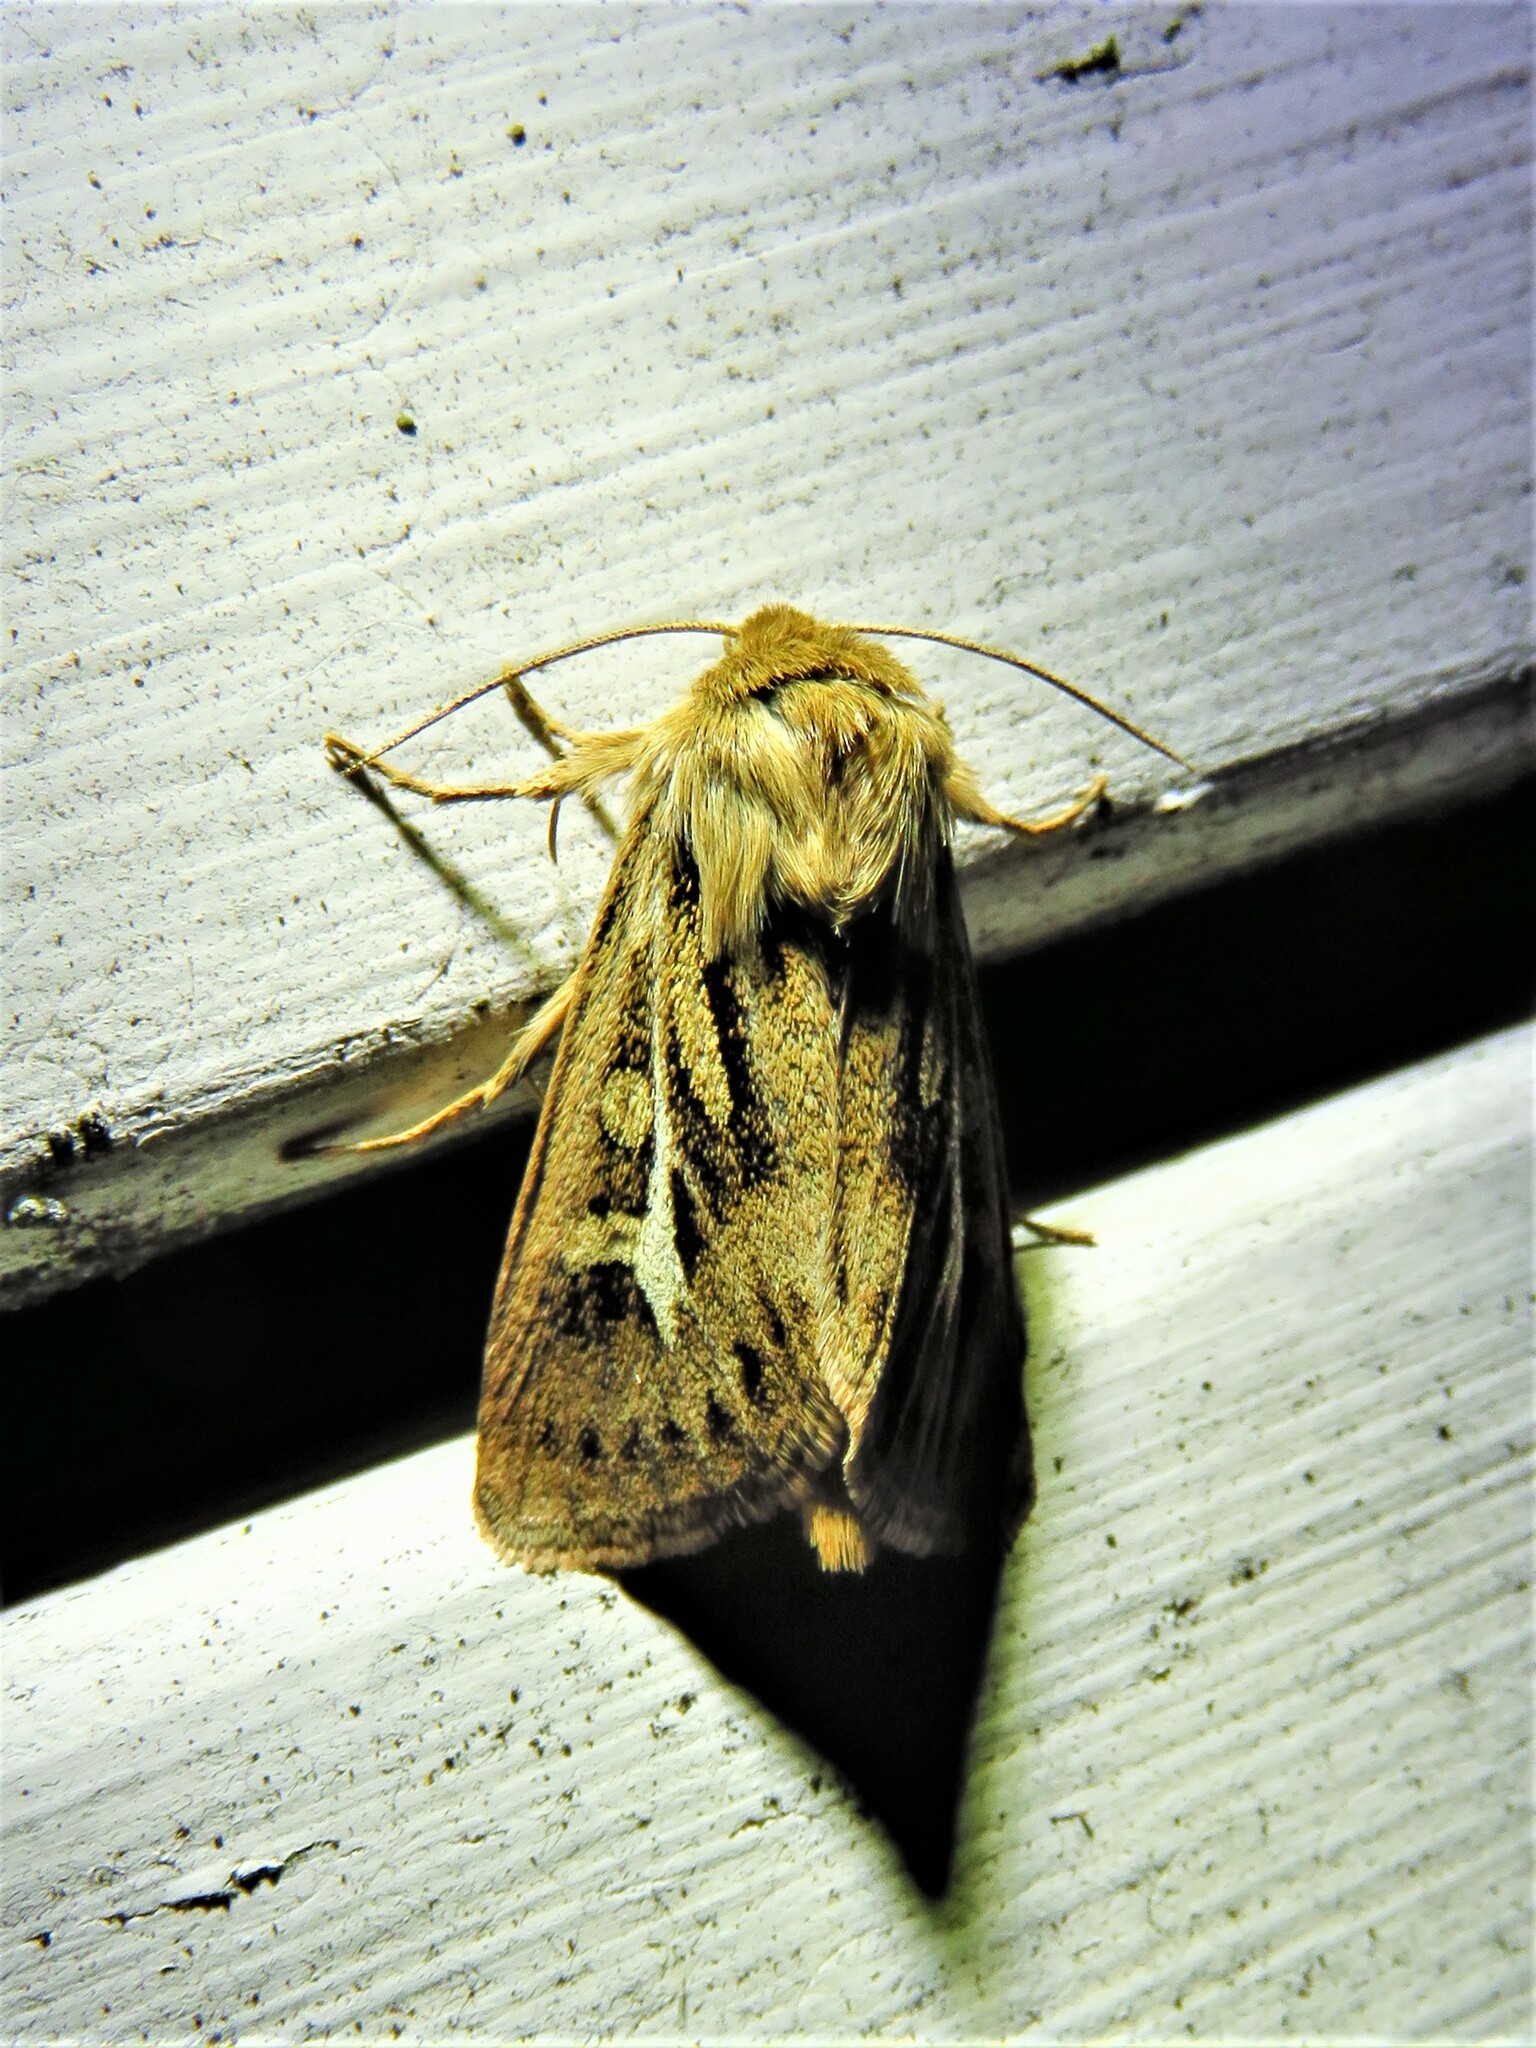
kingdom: Animalia
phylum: Arthropoda
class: Insecta
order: Lepidoptera
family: Noctuidae
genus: Cerapteryx
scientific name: Cerapteryx graminis
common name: Antler moth
